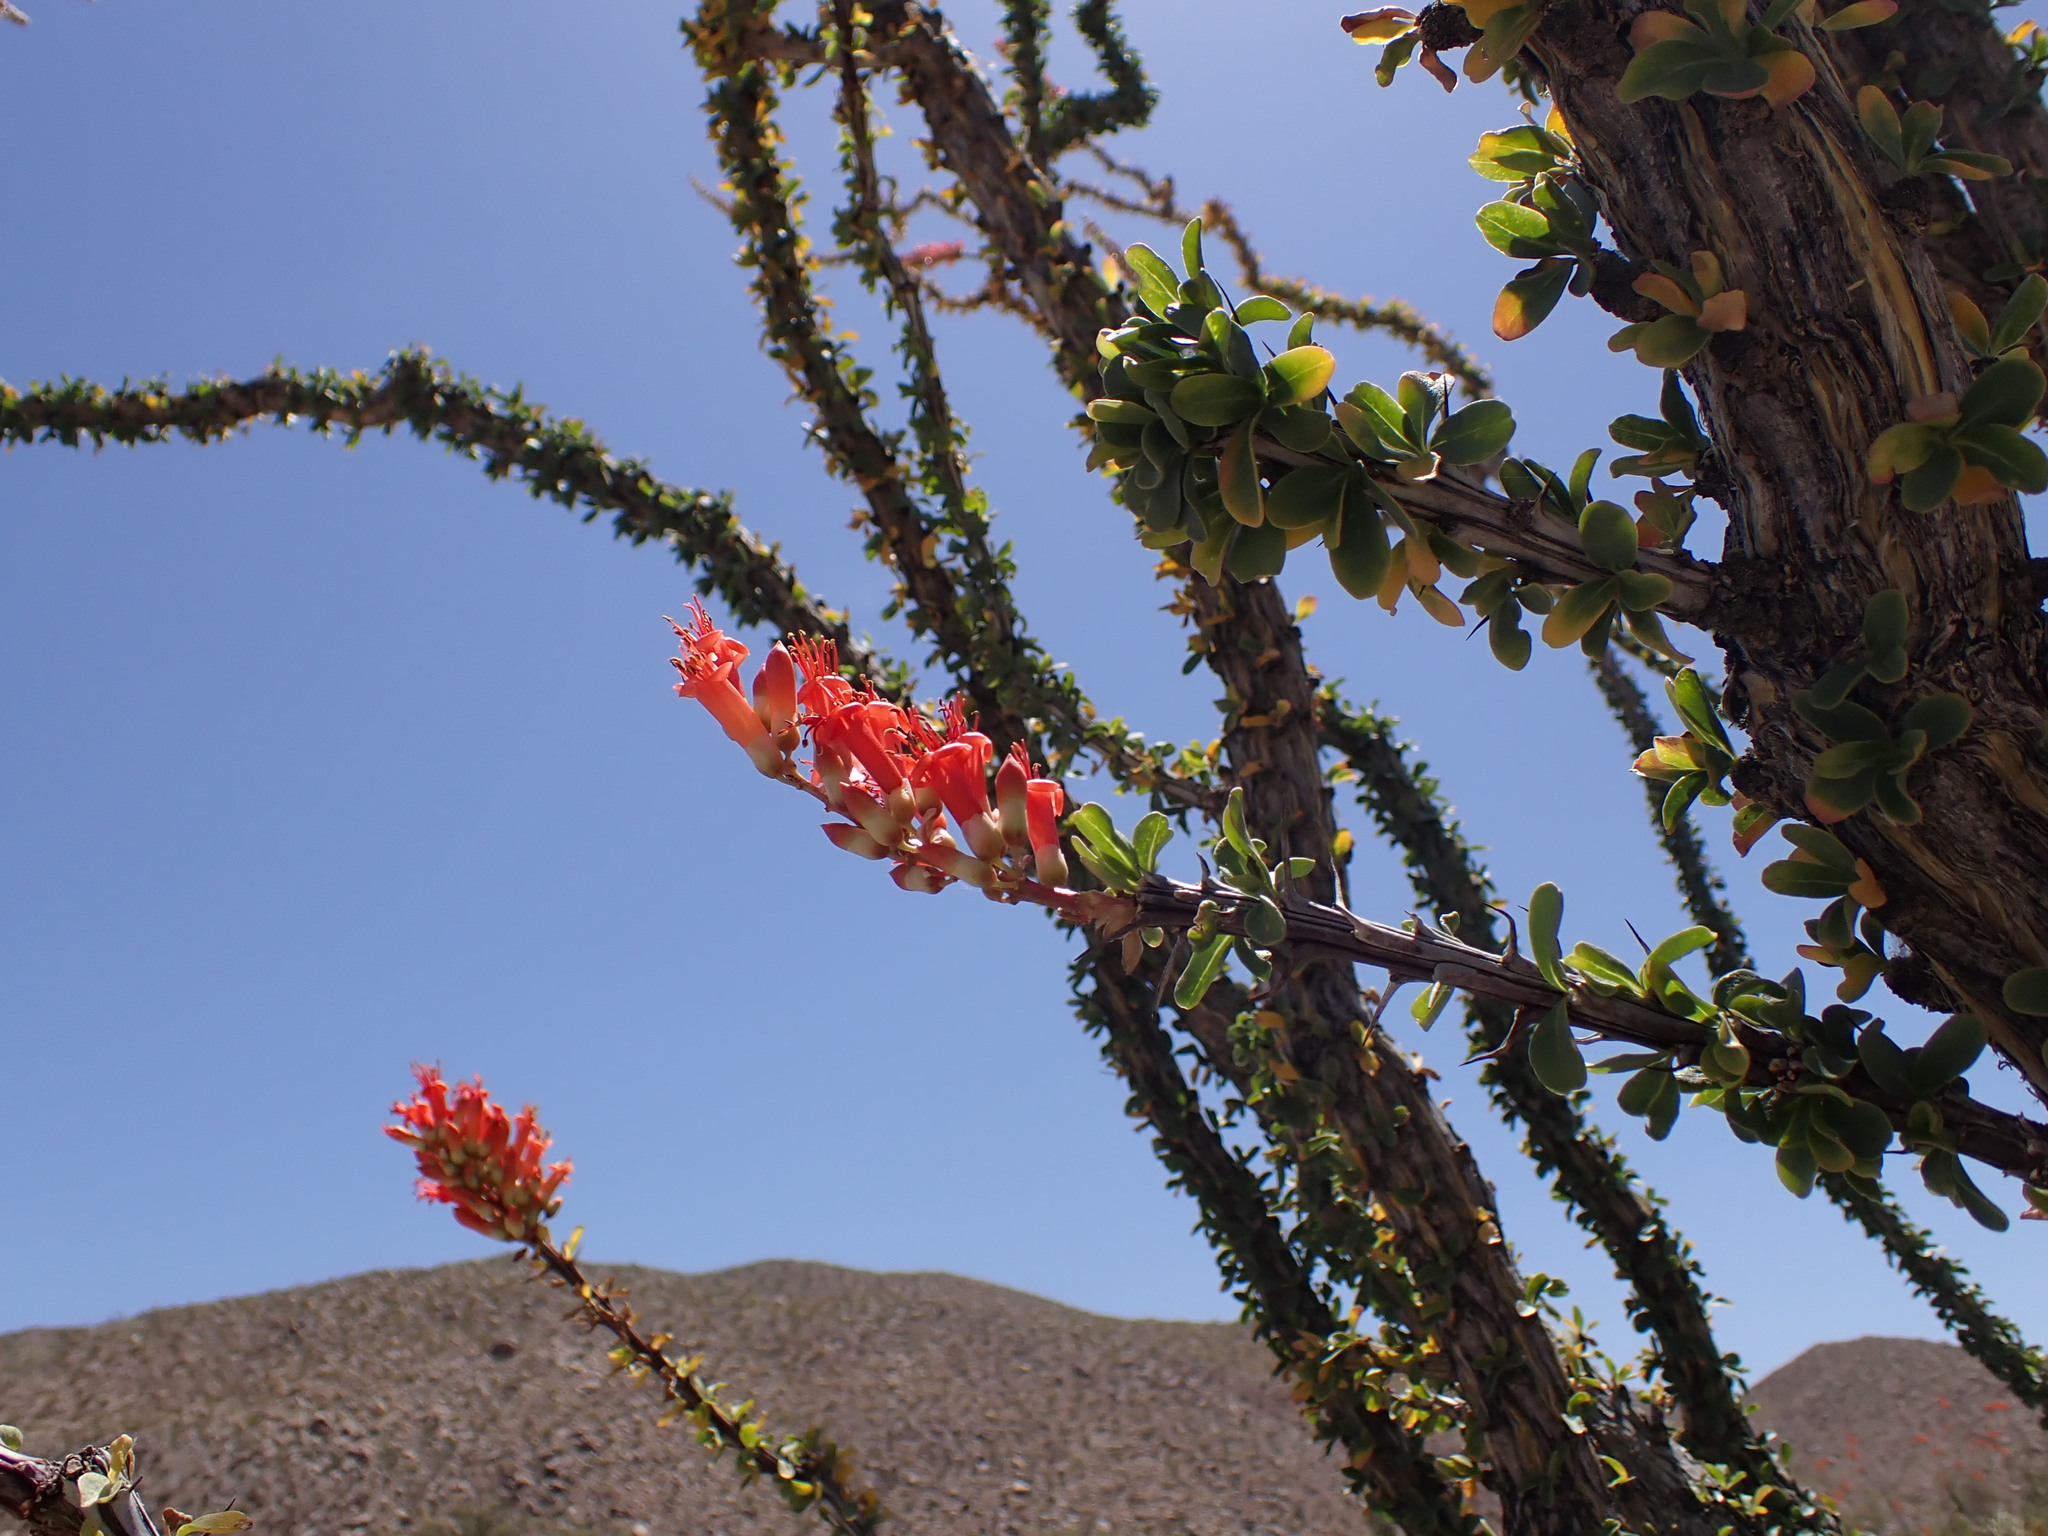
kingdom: Plantae
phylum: Tracheophyta
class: Magnoliopsida
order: Ericales
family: Fouquieriaceae
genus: Fouquieria
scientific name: Fouquieria splendens
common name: Vine-cactus
